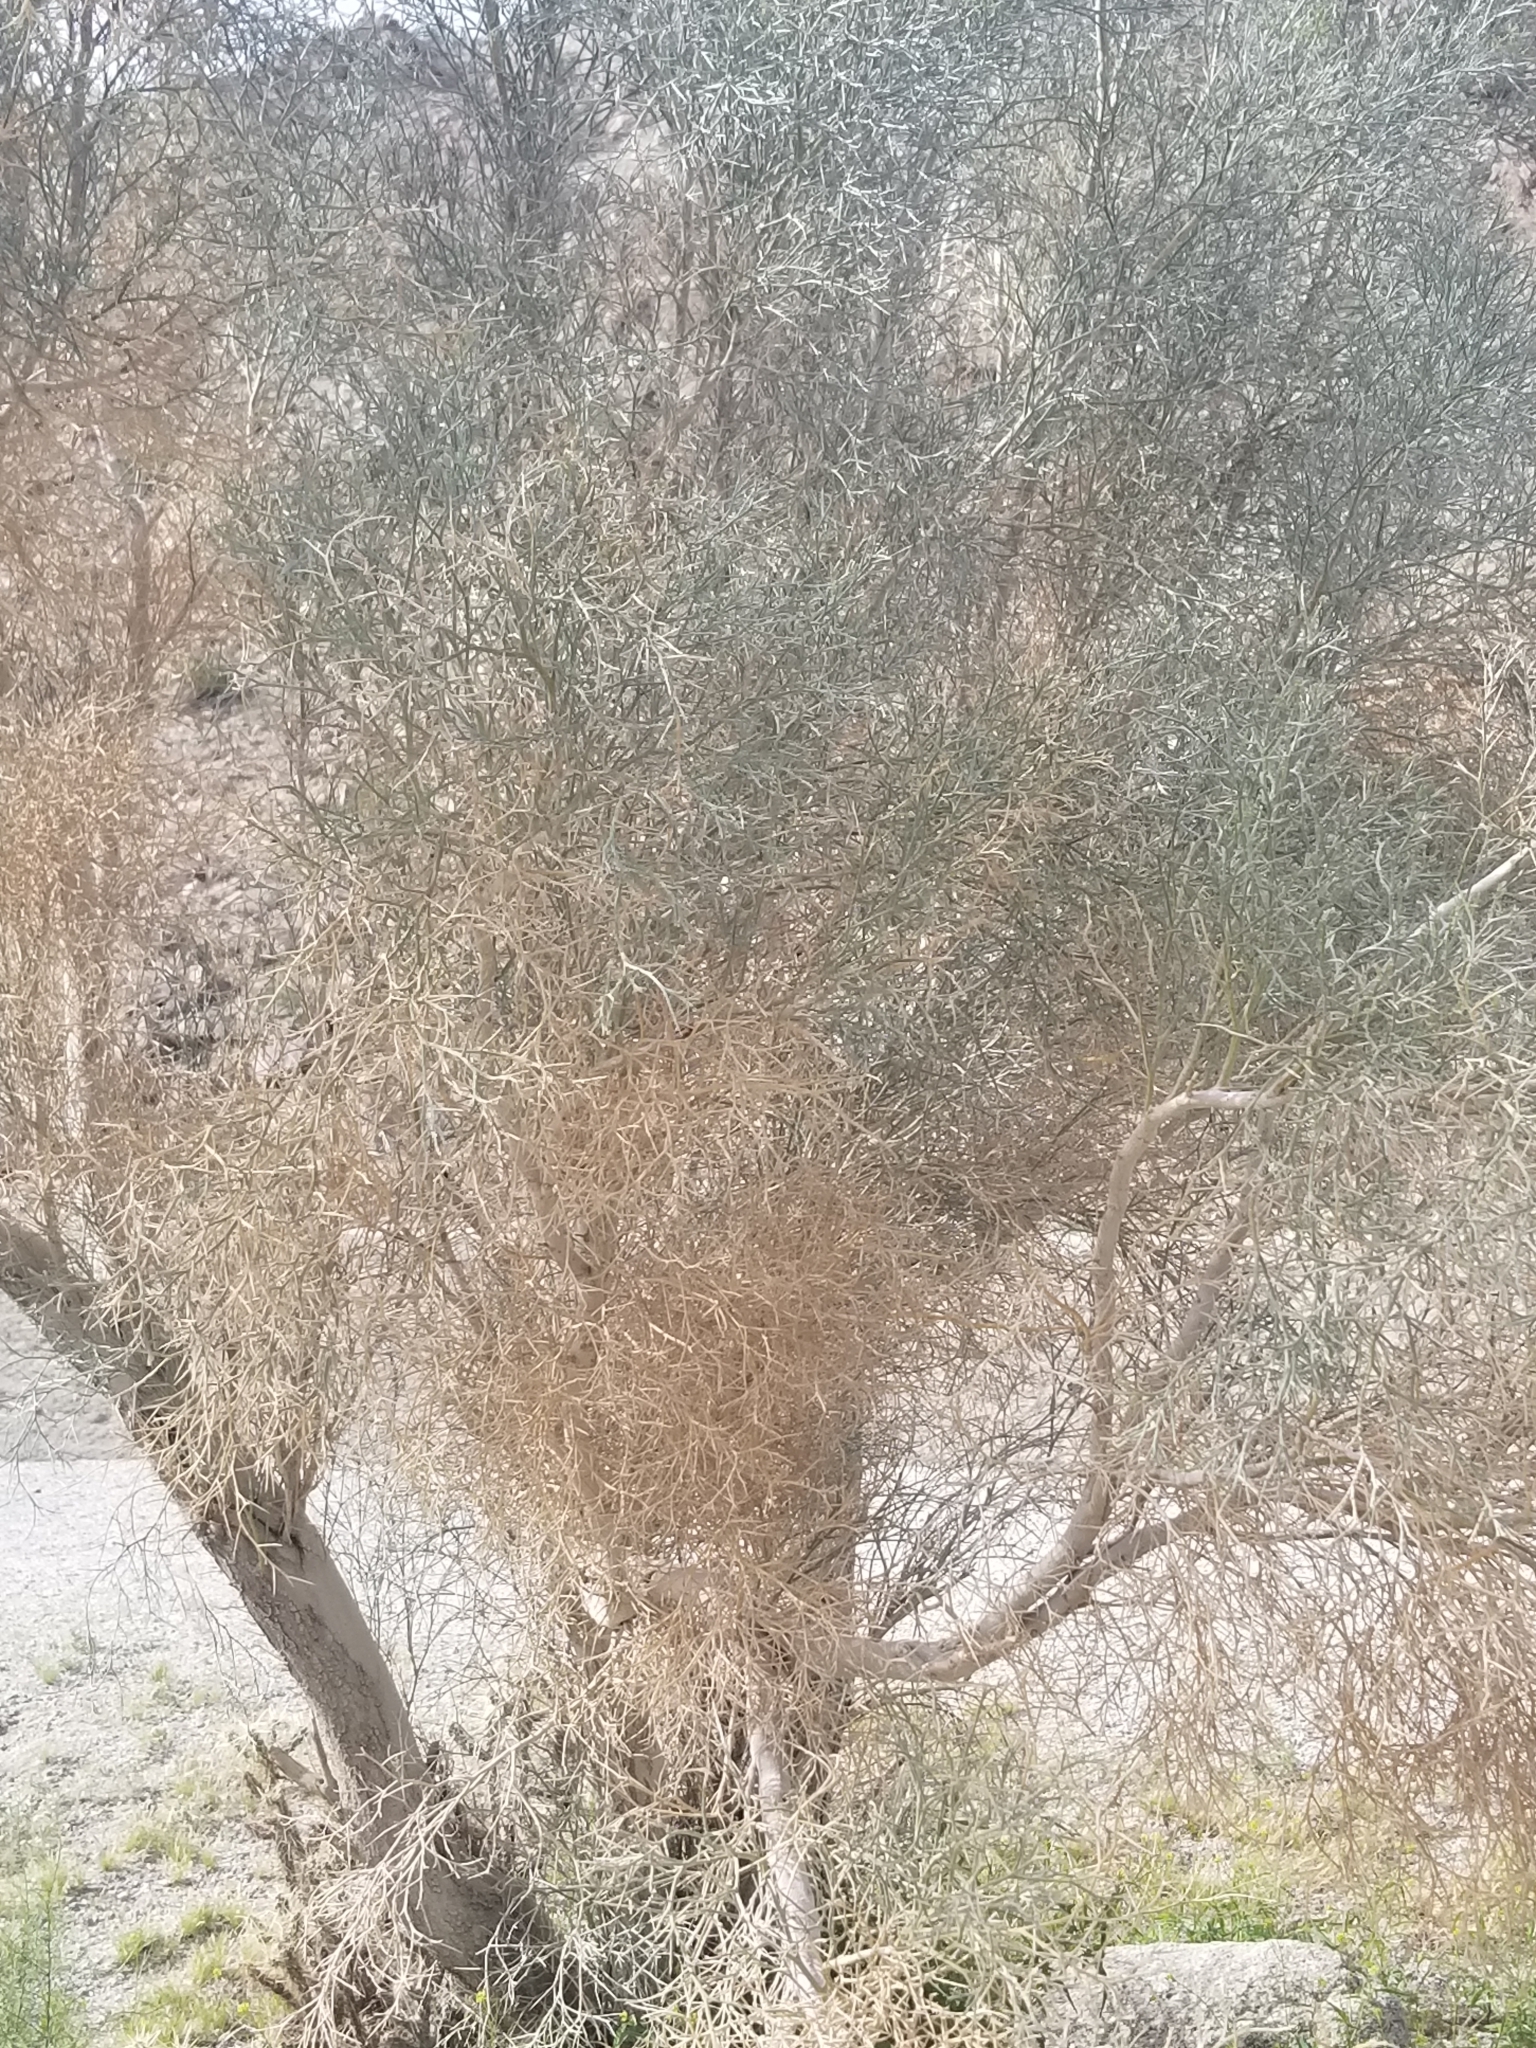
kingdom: Plantae
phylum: Tracheophyta
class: Magnoliopsida
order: Fabales
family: Fabaceae
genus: Psorothamnus
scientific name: Psorothamnus spinosus
